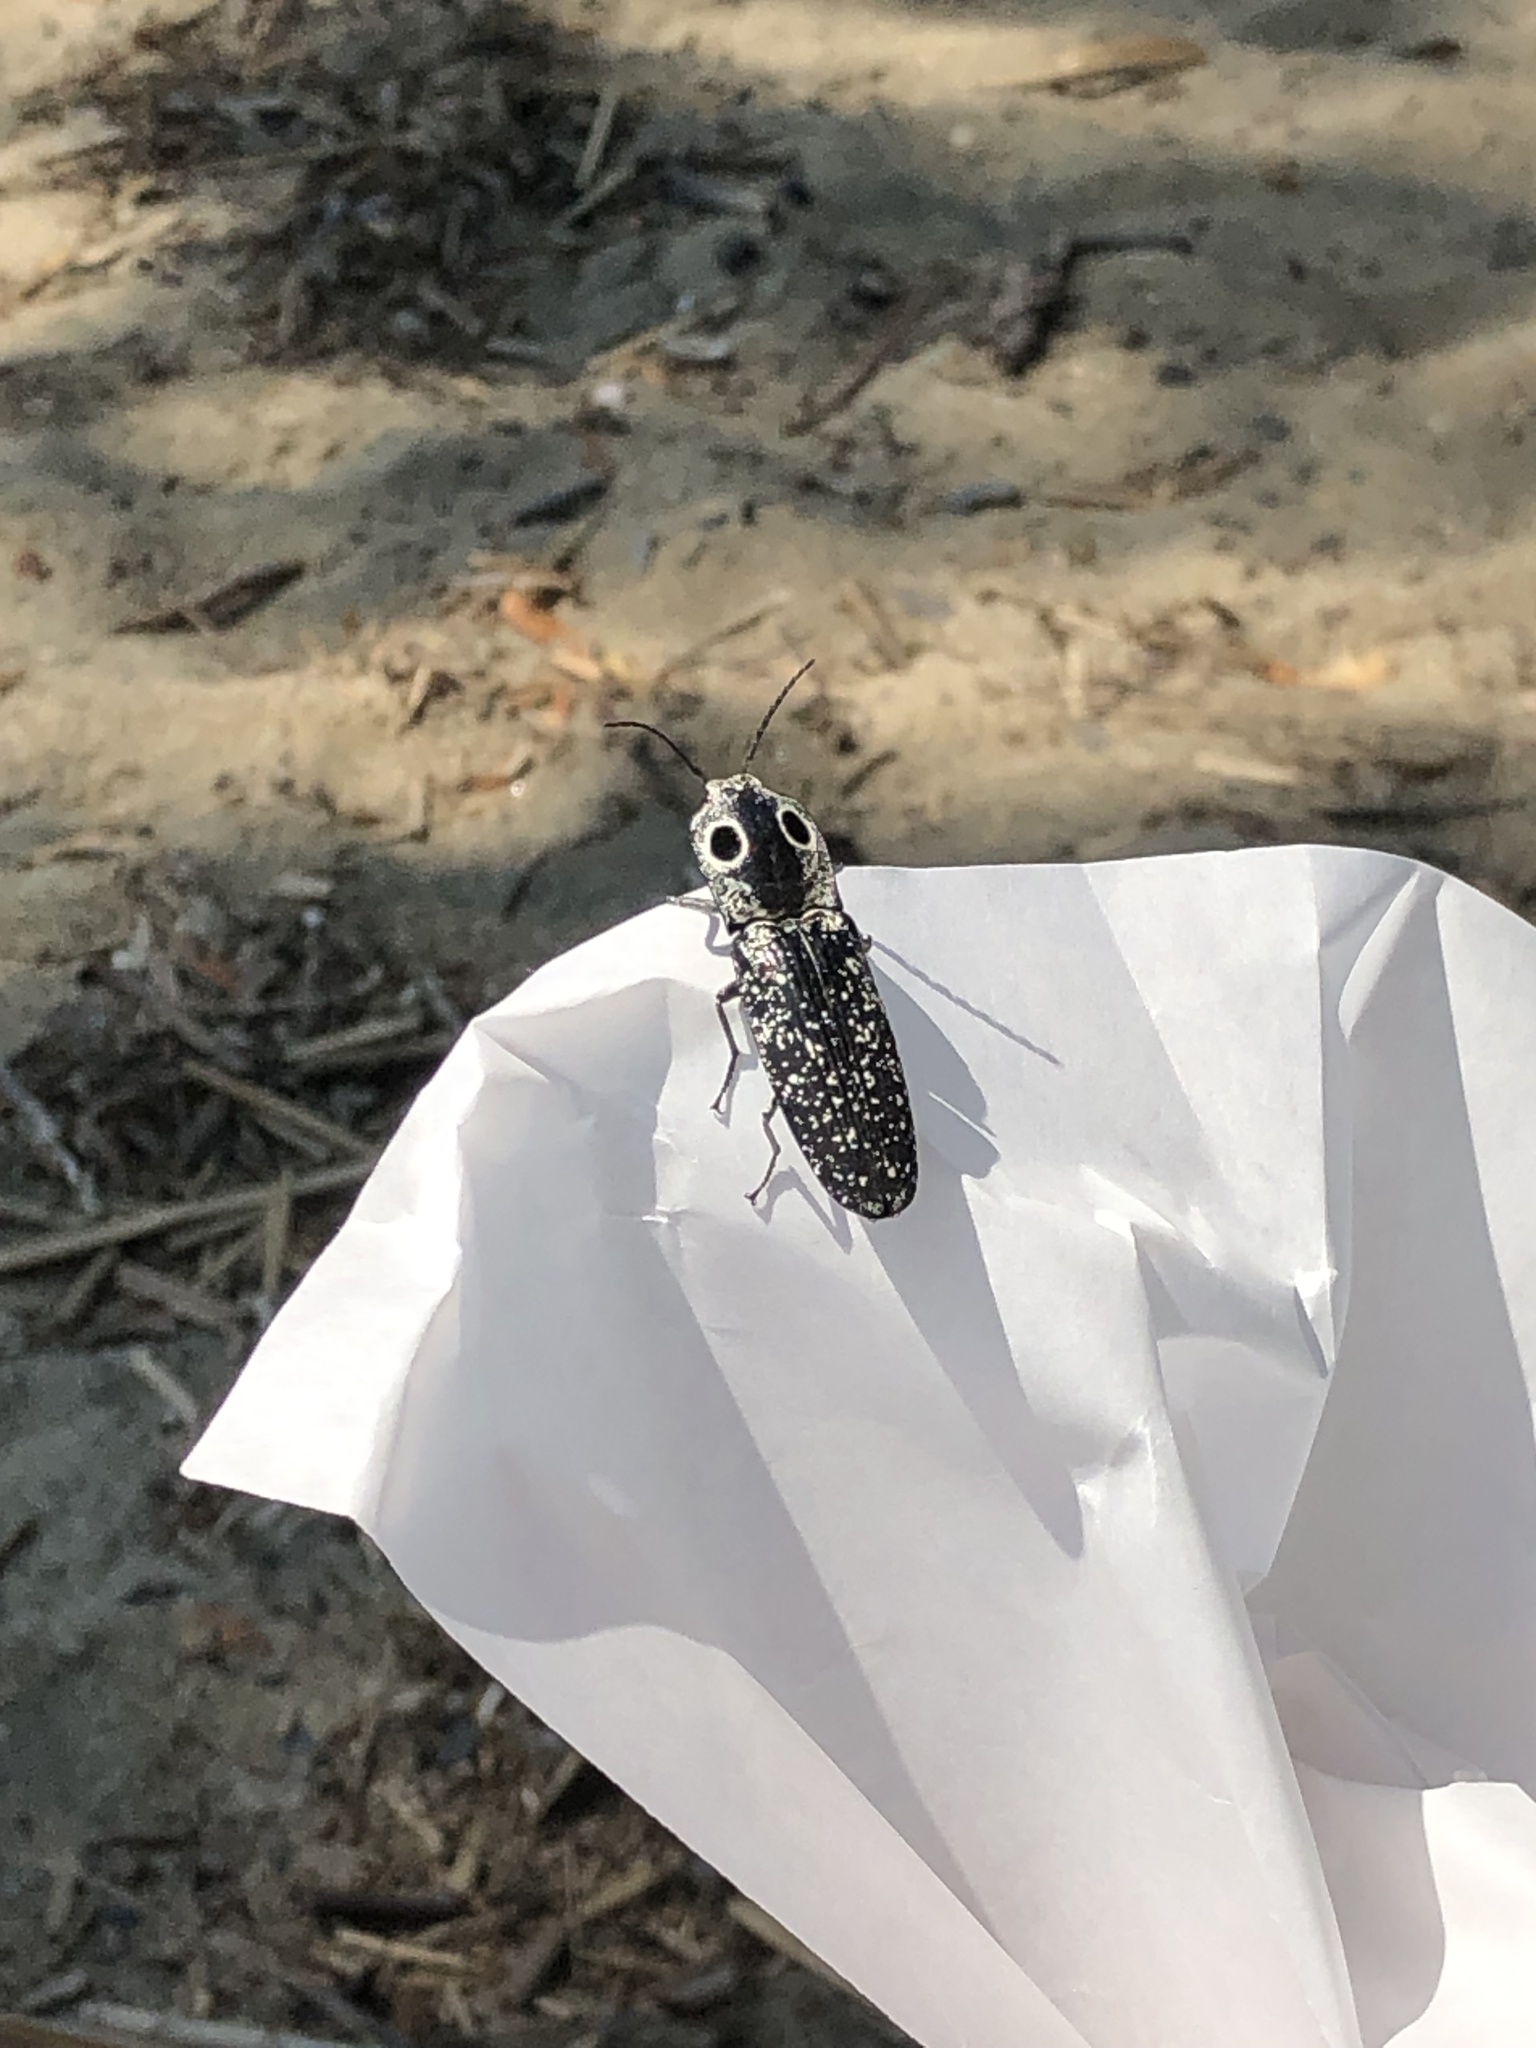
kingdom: Animalia
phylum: Arthropoda
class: Insecta
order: Coleoptera
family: Elateridae
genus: Alaus
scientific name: Alaus oculatus
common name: Eastern eyed click beetle
